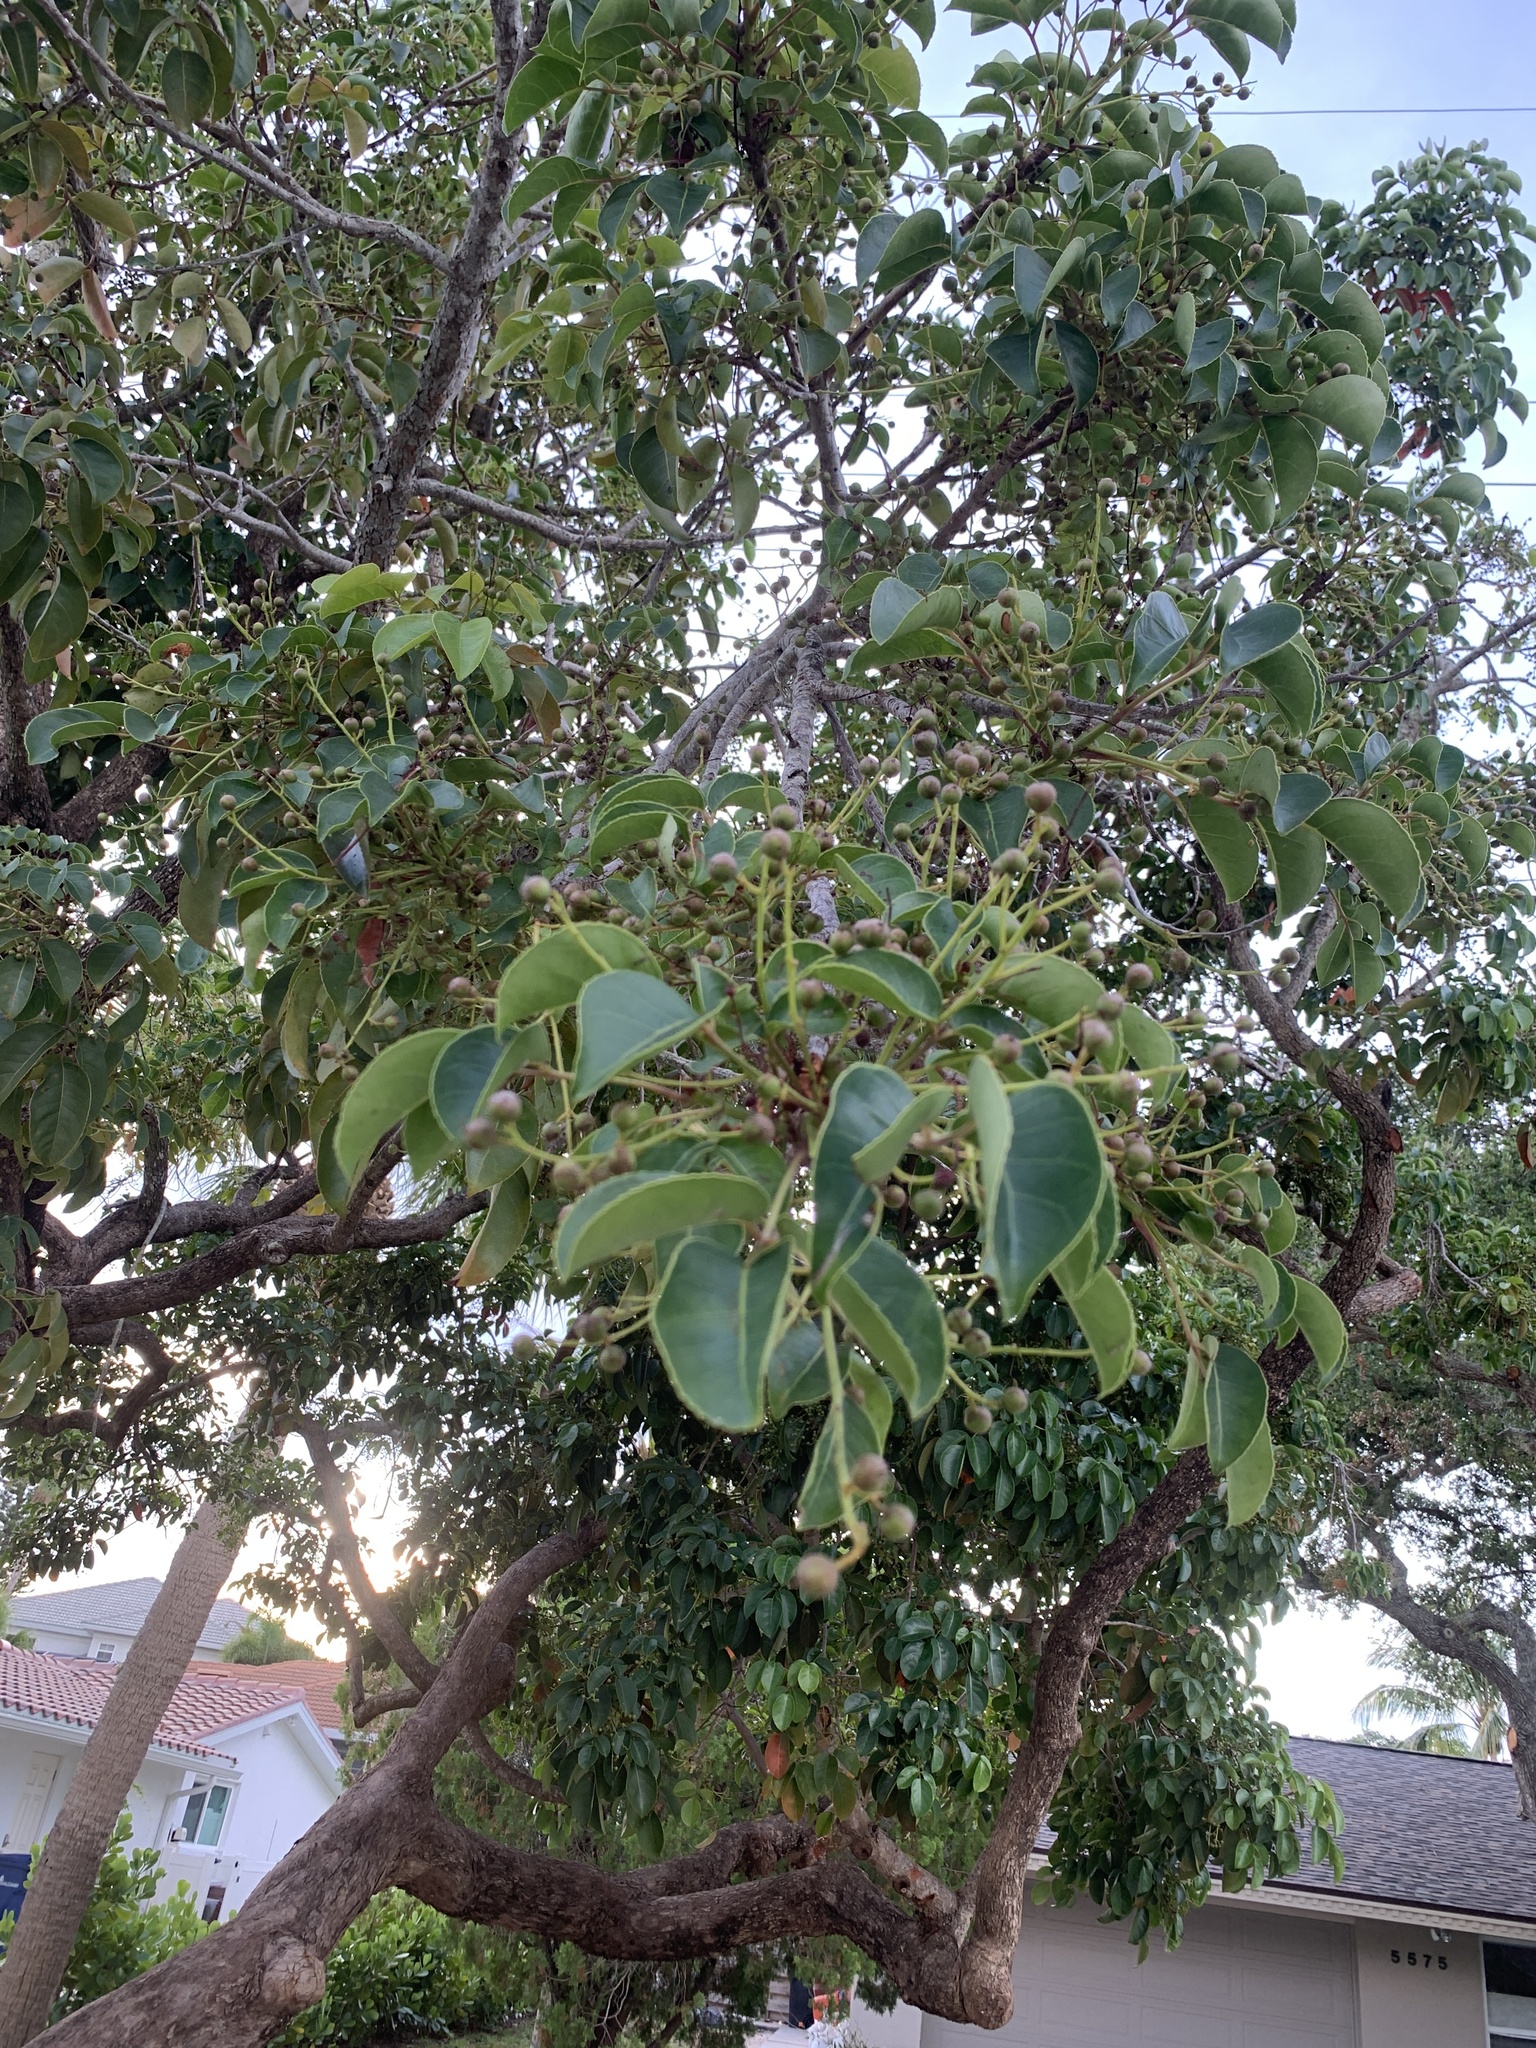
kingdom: Plantae
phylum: Tracheophyta
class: Magnoliopsida
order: Malpighiales
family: Phyllanthaceae
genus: Bischofia
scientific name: Bischofia javanica
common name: Javanese bishopwood
